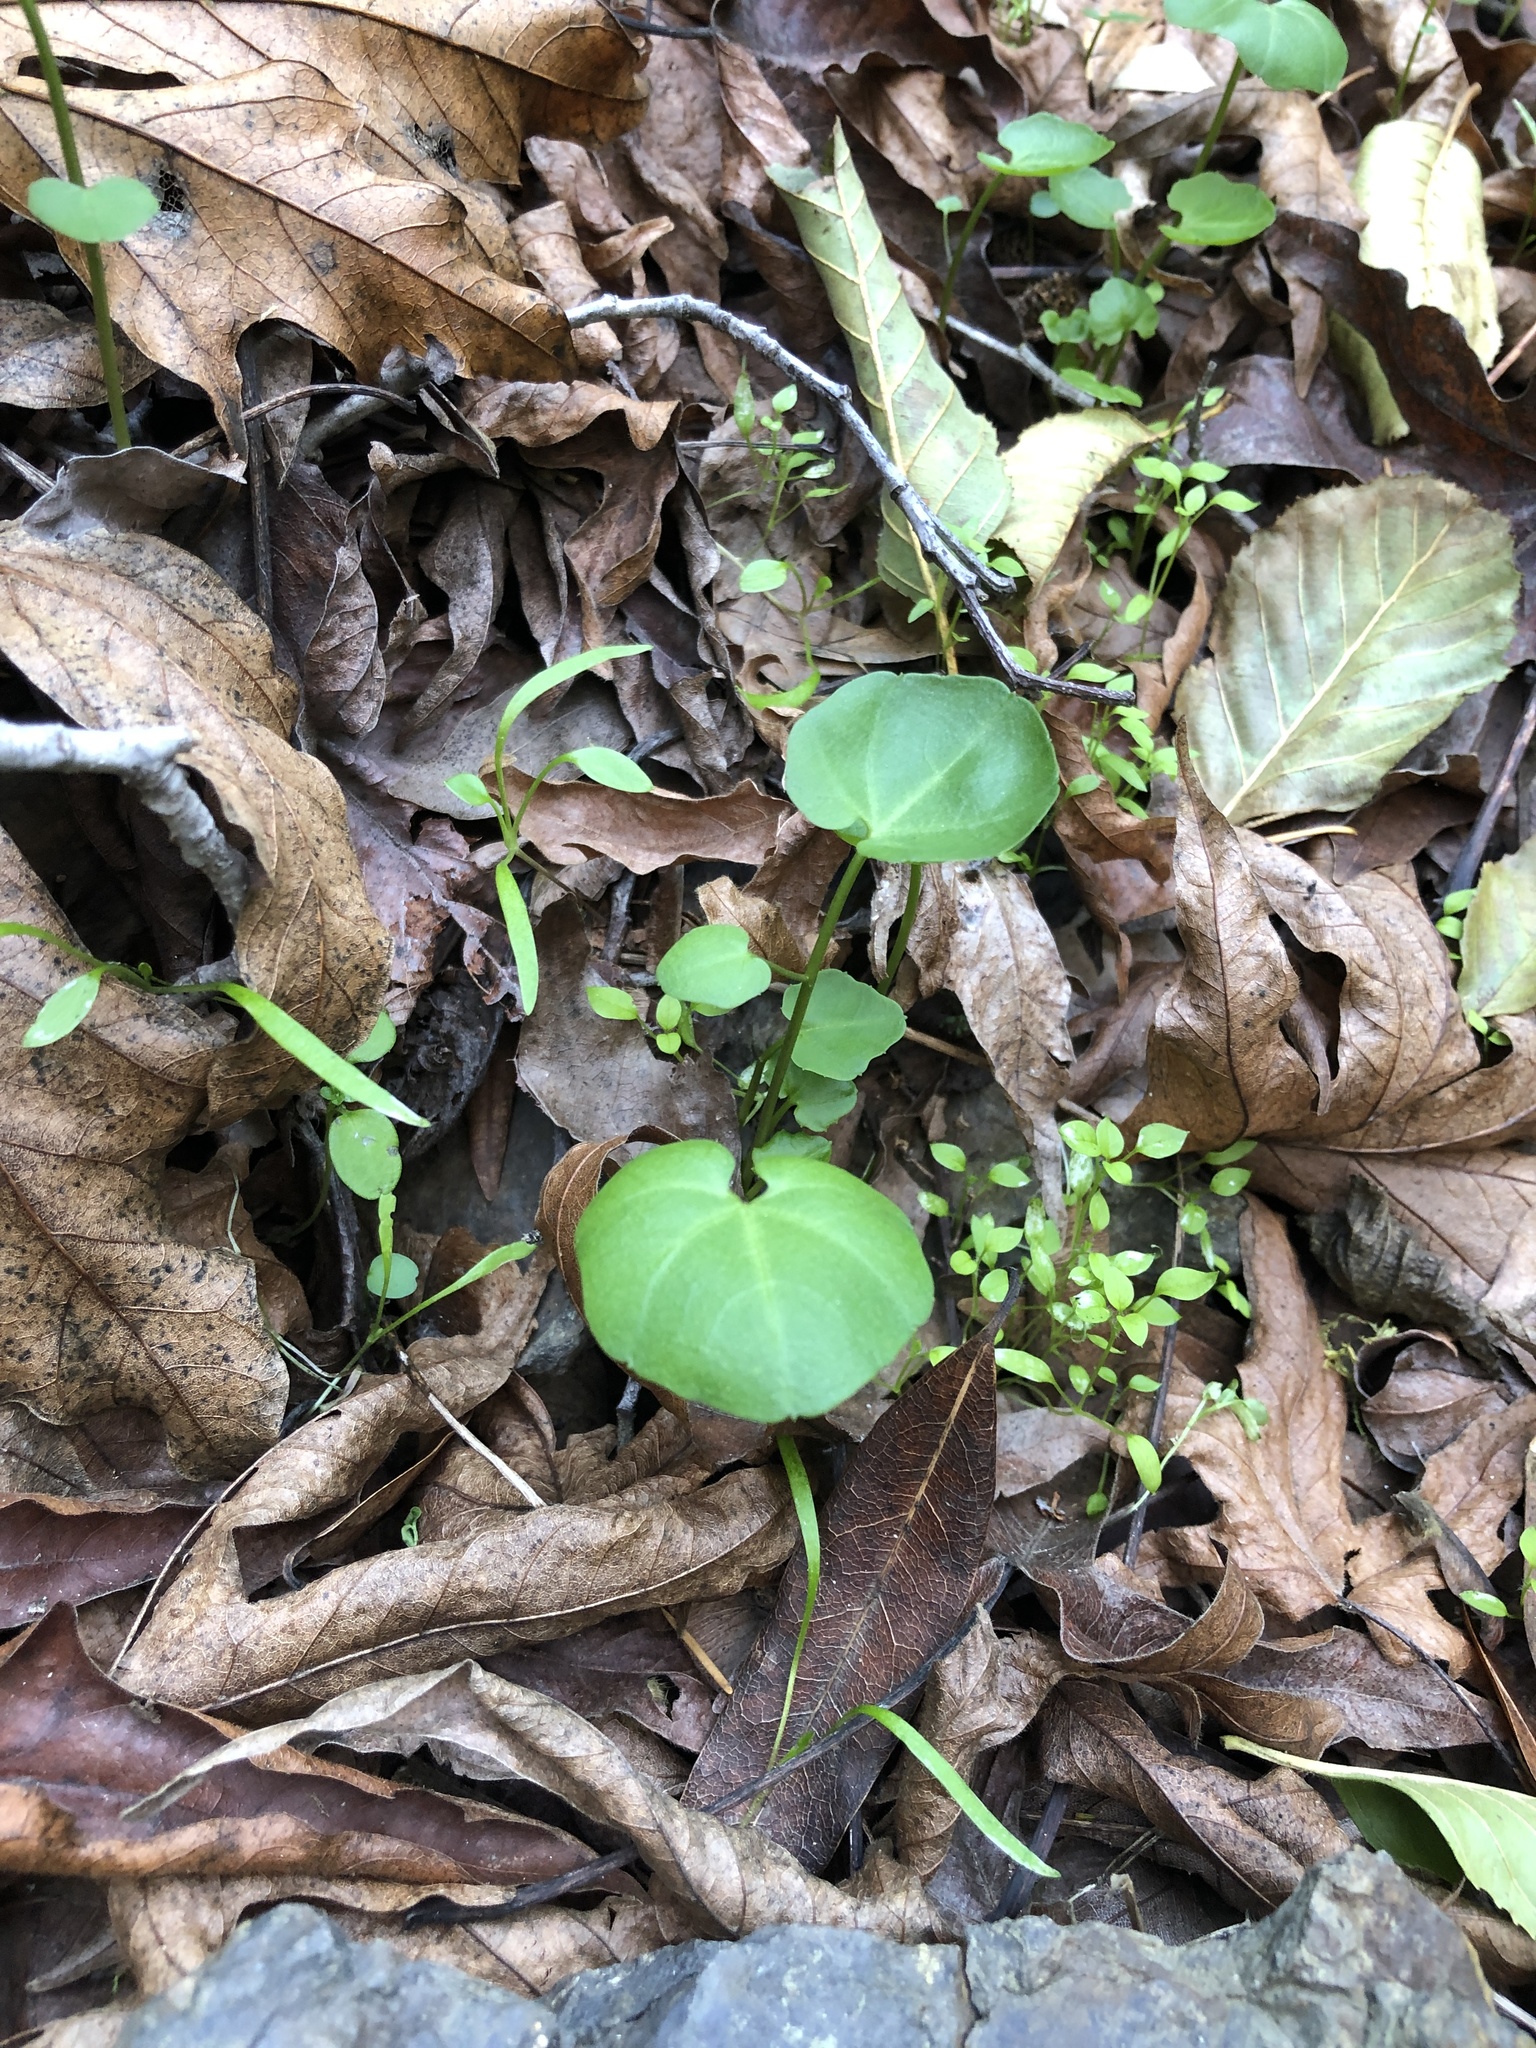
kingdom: Plantae
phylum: Tracheophyta
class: Magnoliopsida
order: Brassicales
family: Brassicaceae
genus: Cardamine
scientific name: Cardamine californica
